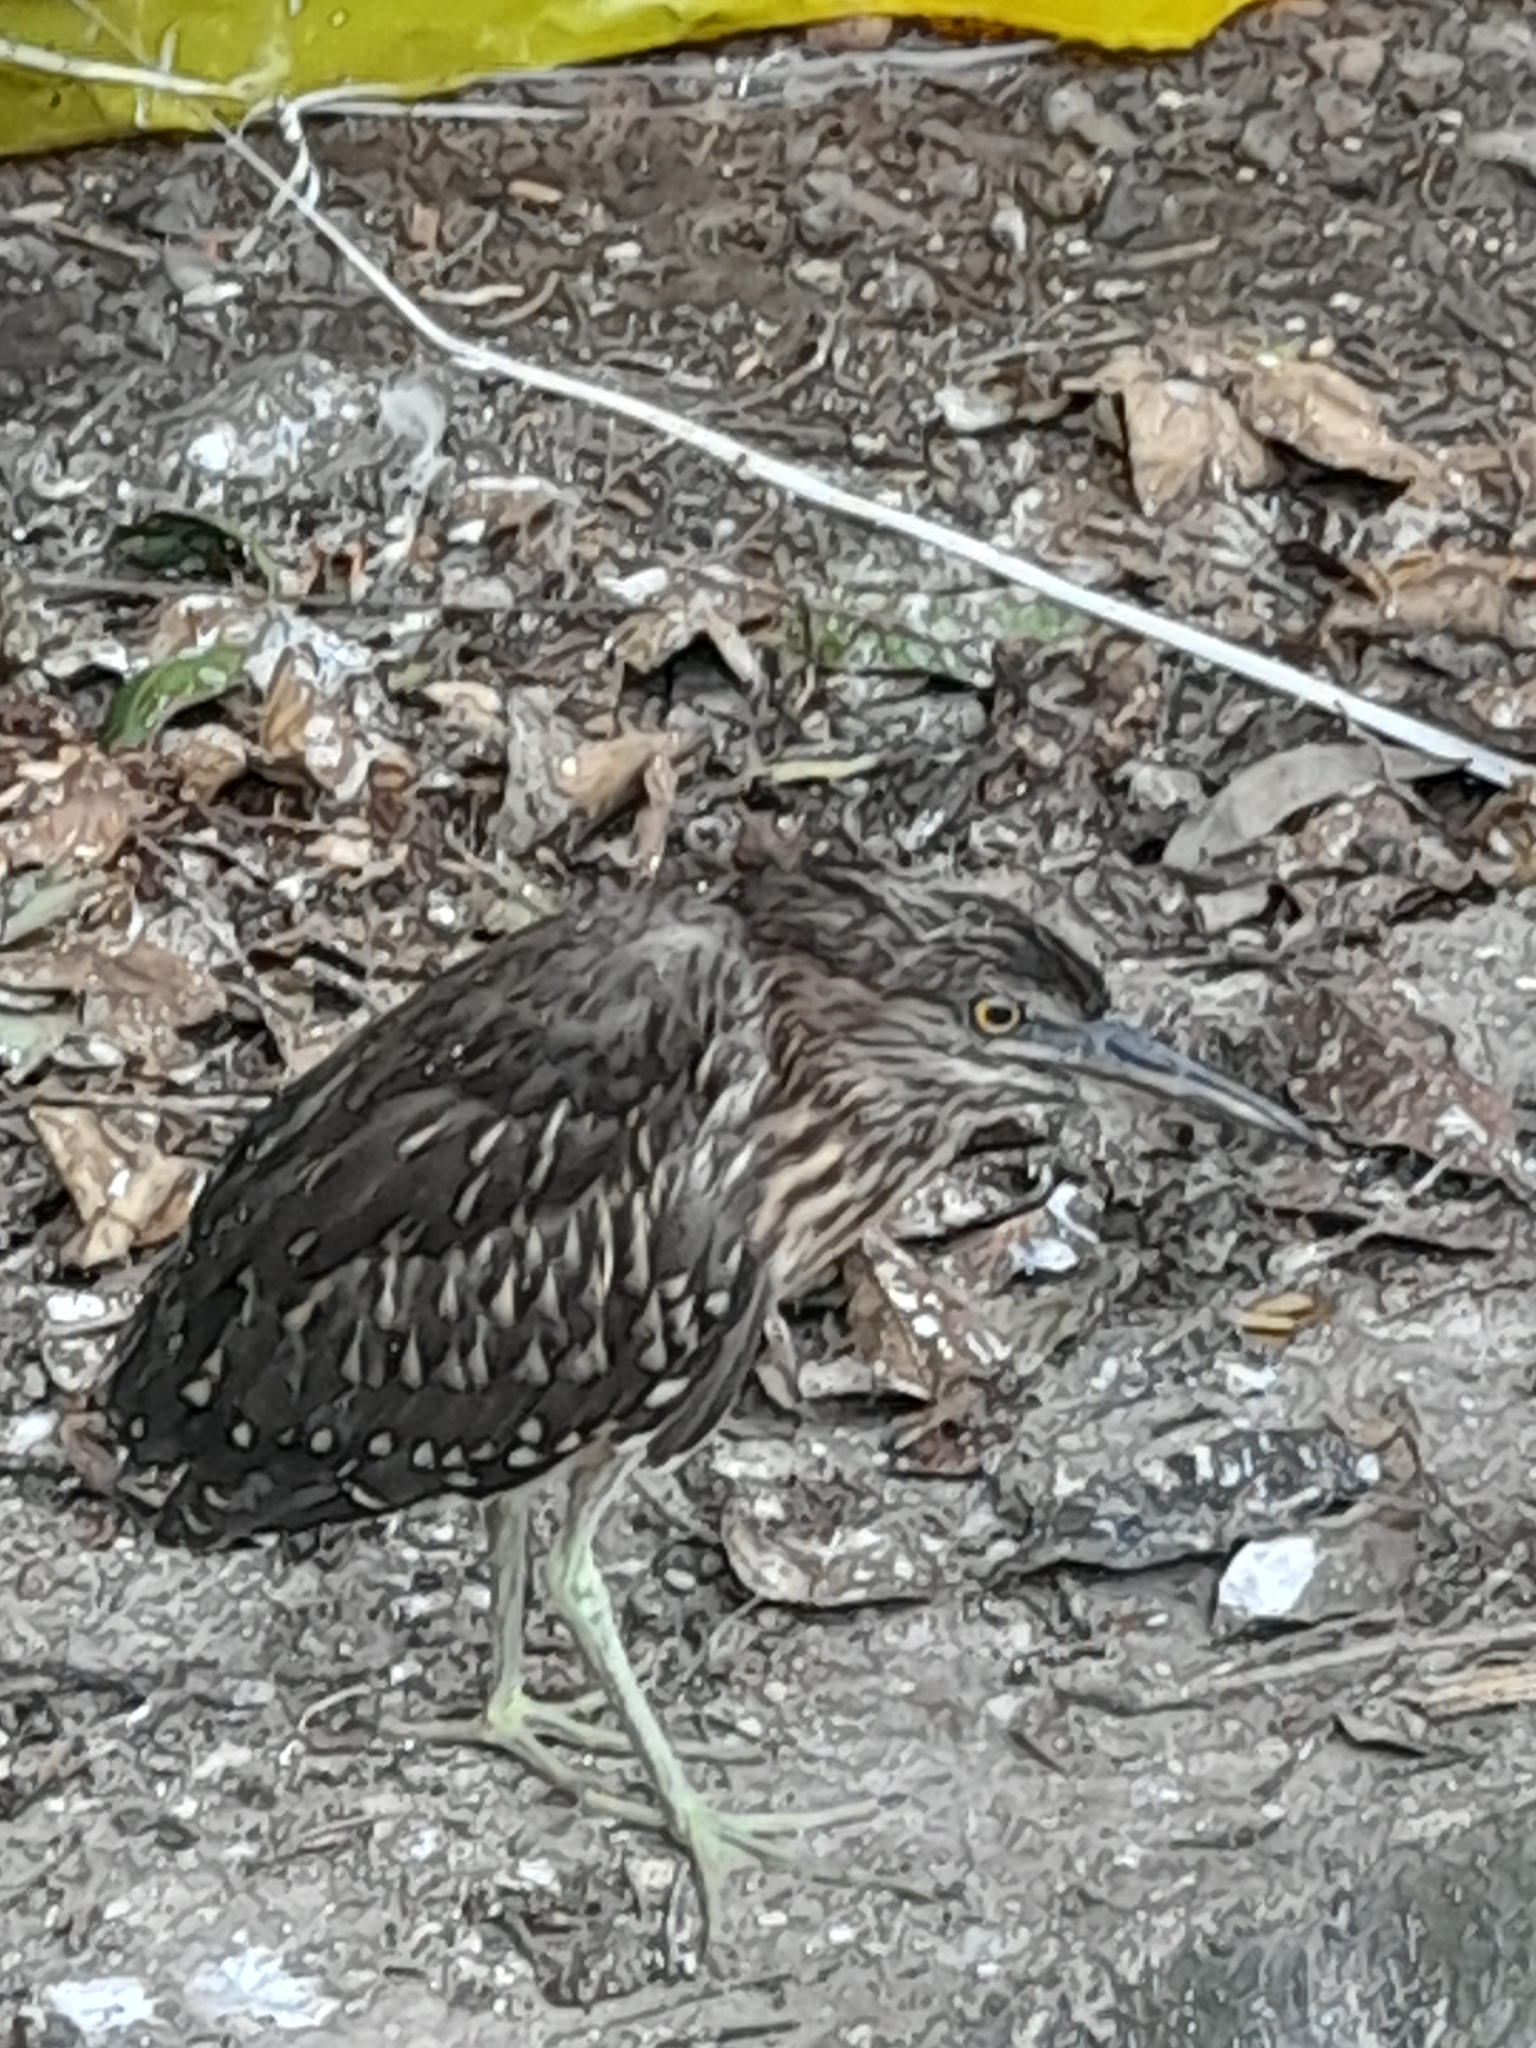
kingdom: Animalia
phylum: Chordata
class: Aves
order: Pelecaniformes
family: Ardeidae
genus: Nycticorax
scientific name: Nycticorax nycticorax
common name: Black-crowned night heron
